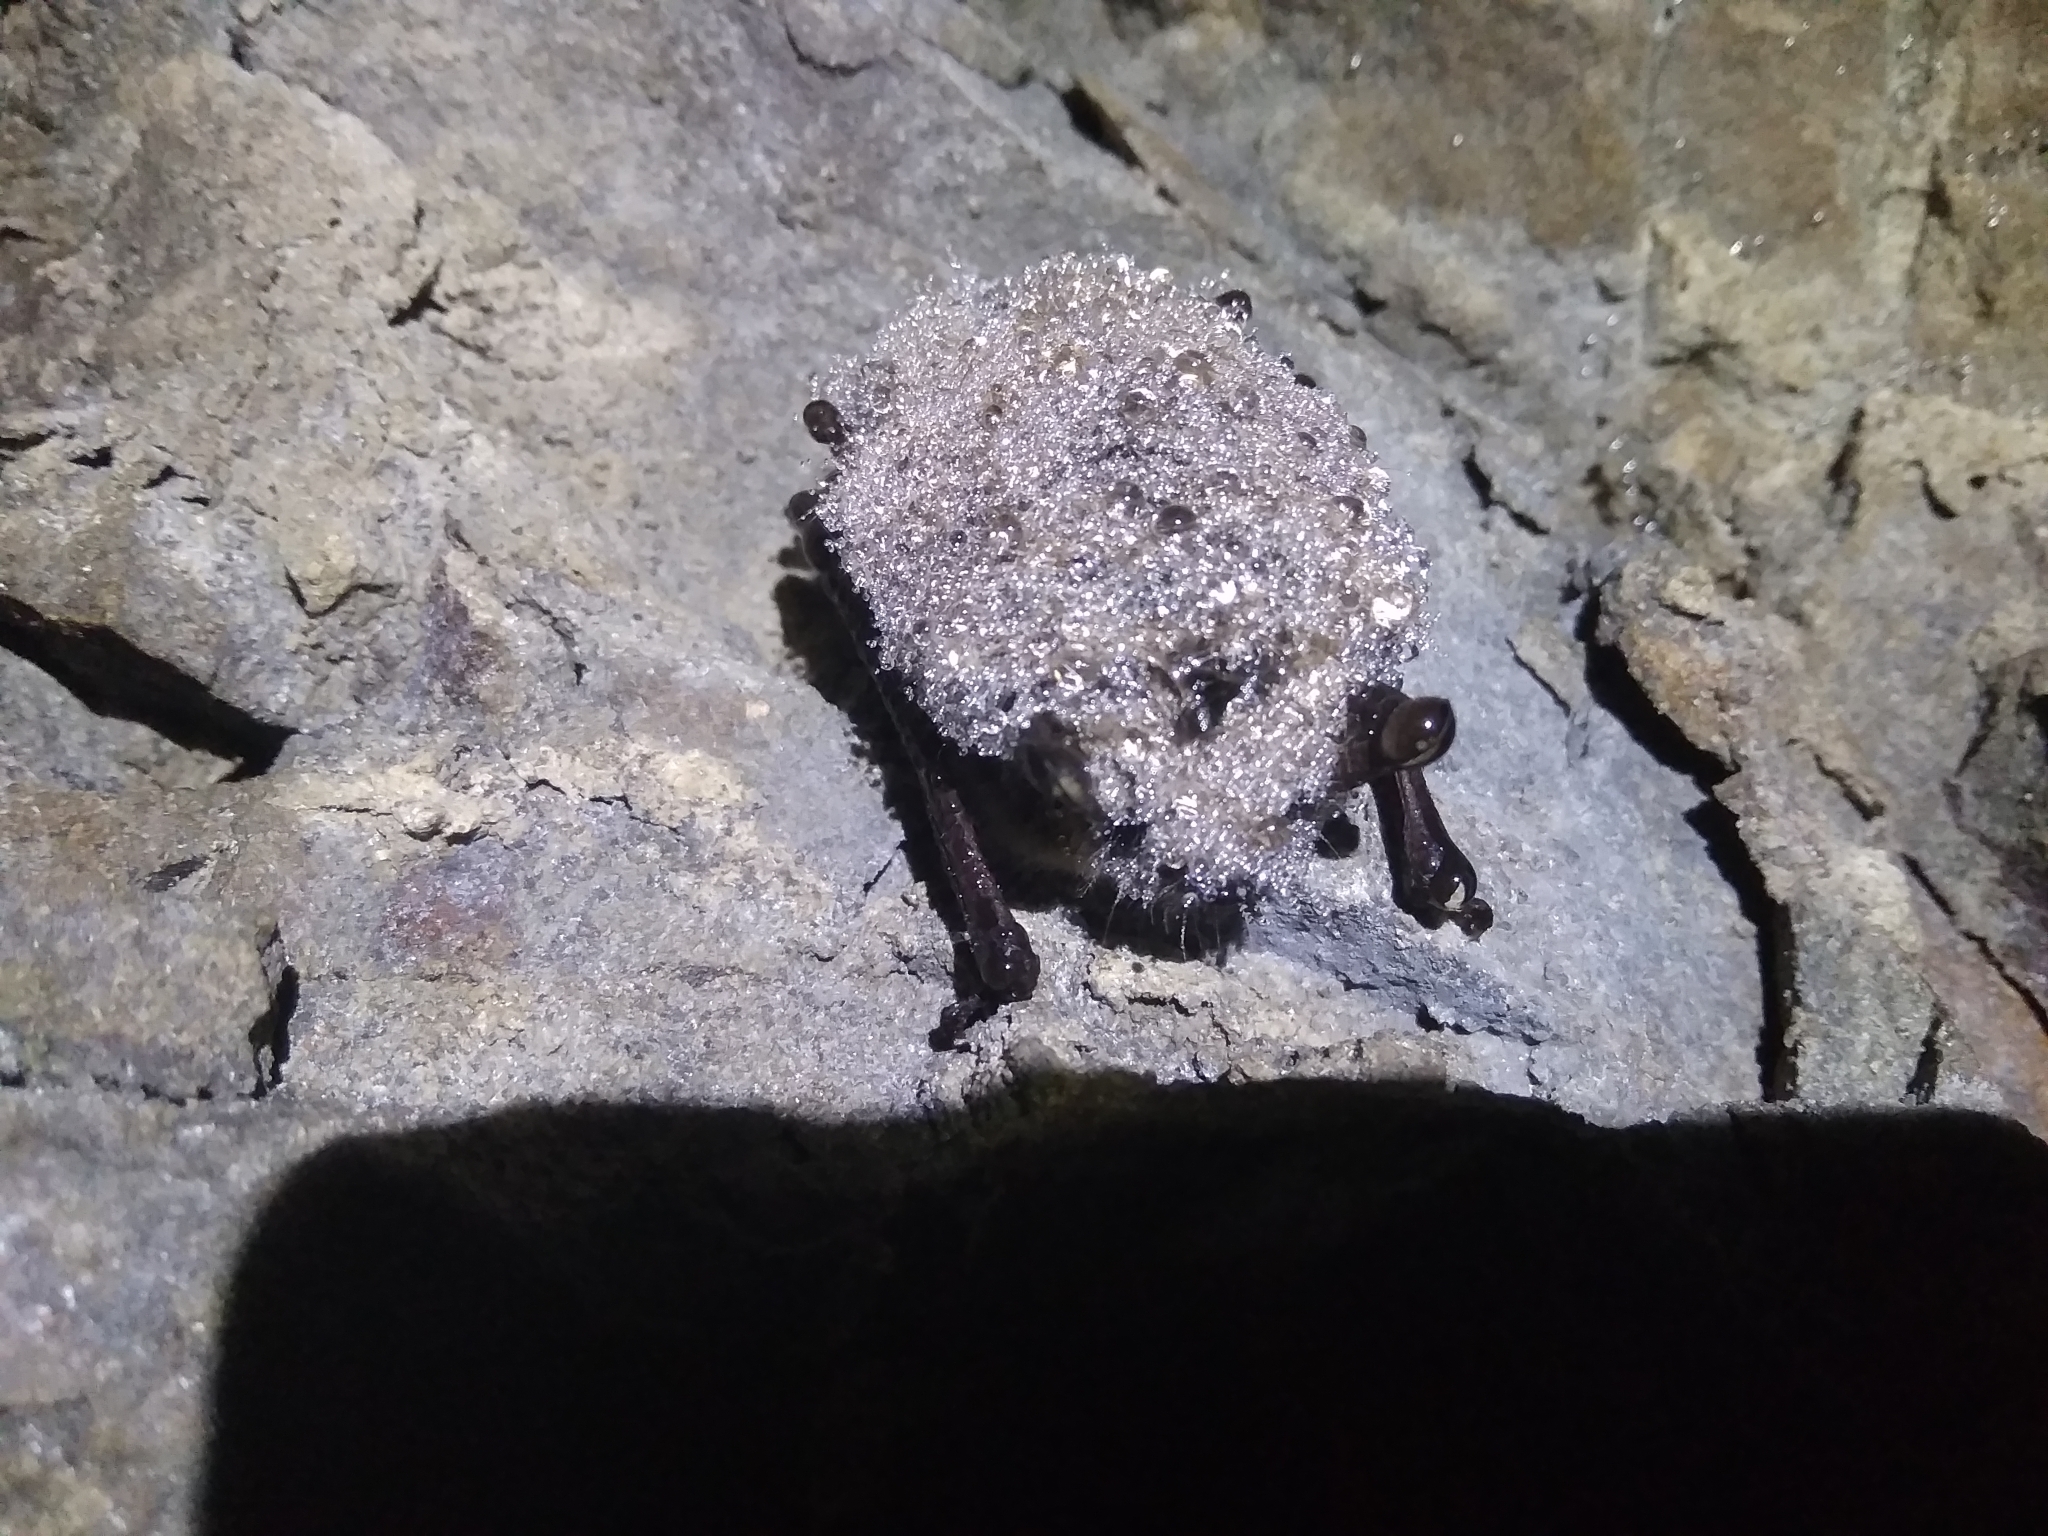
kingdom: Animalia
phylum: Chordata
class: Mammalia
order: Chiroptera
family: Vespertilionidae
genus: Myotis
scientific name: Myotis mystacinus
